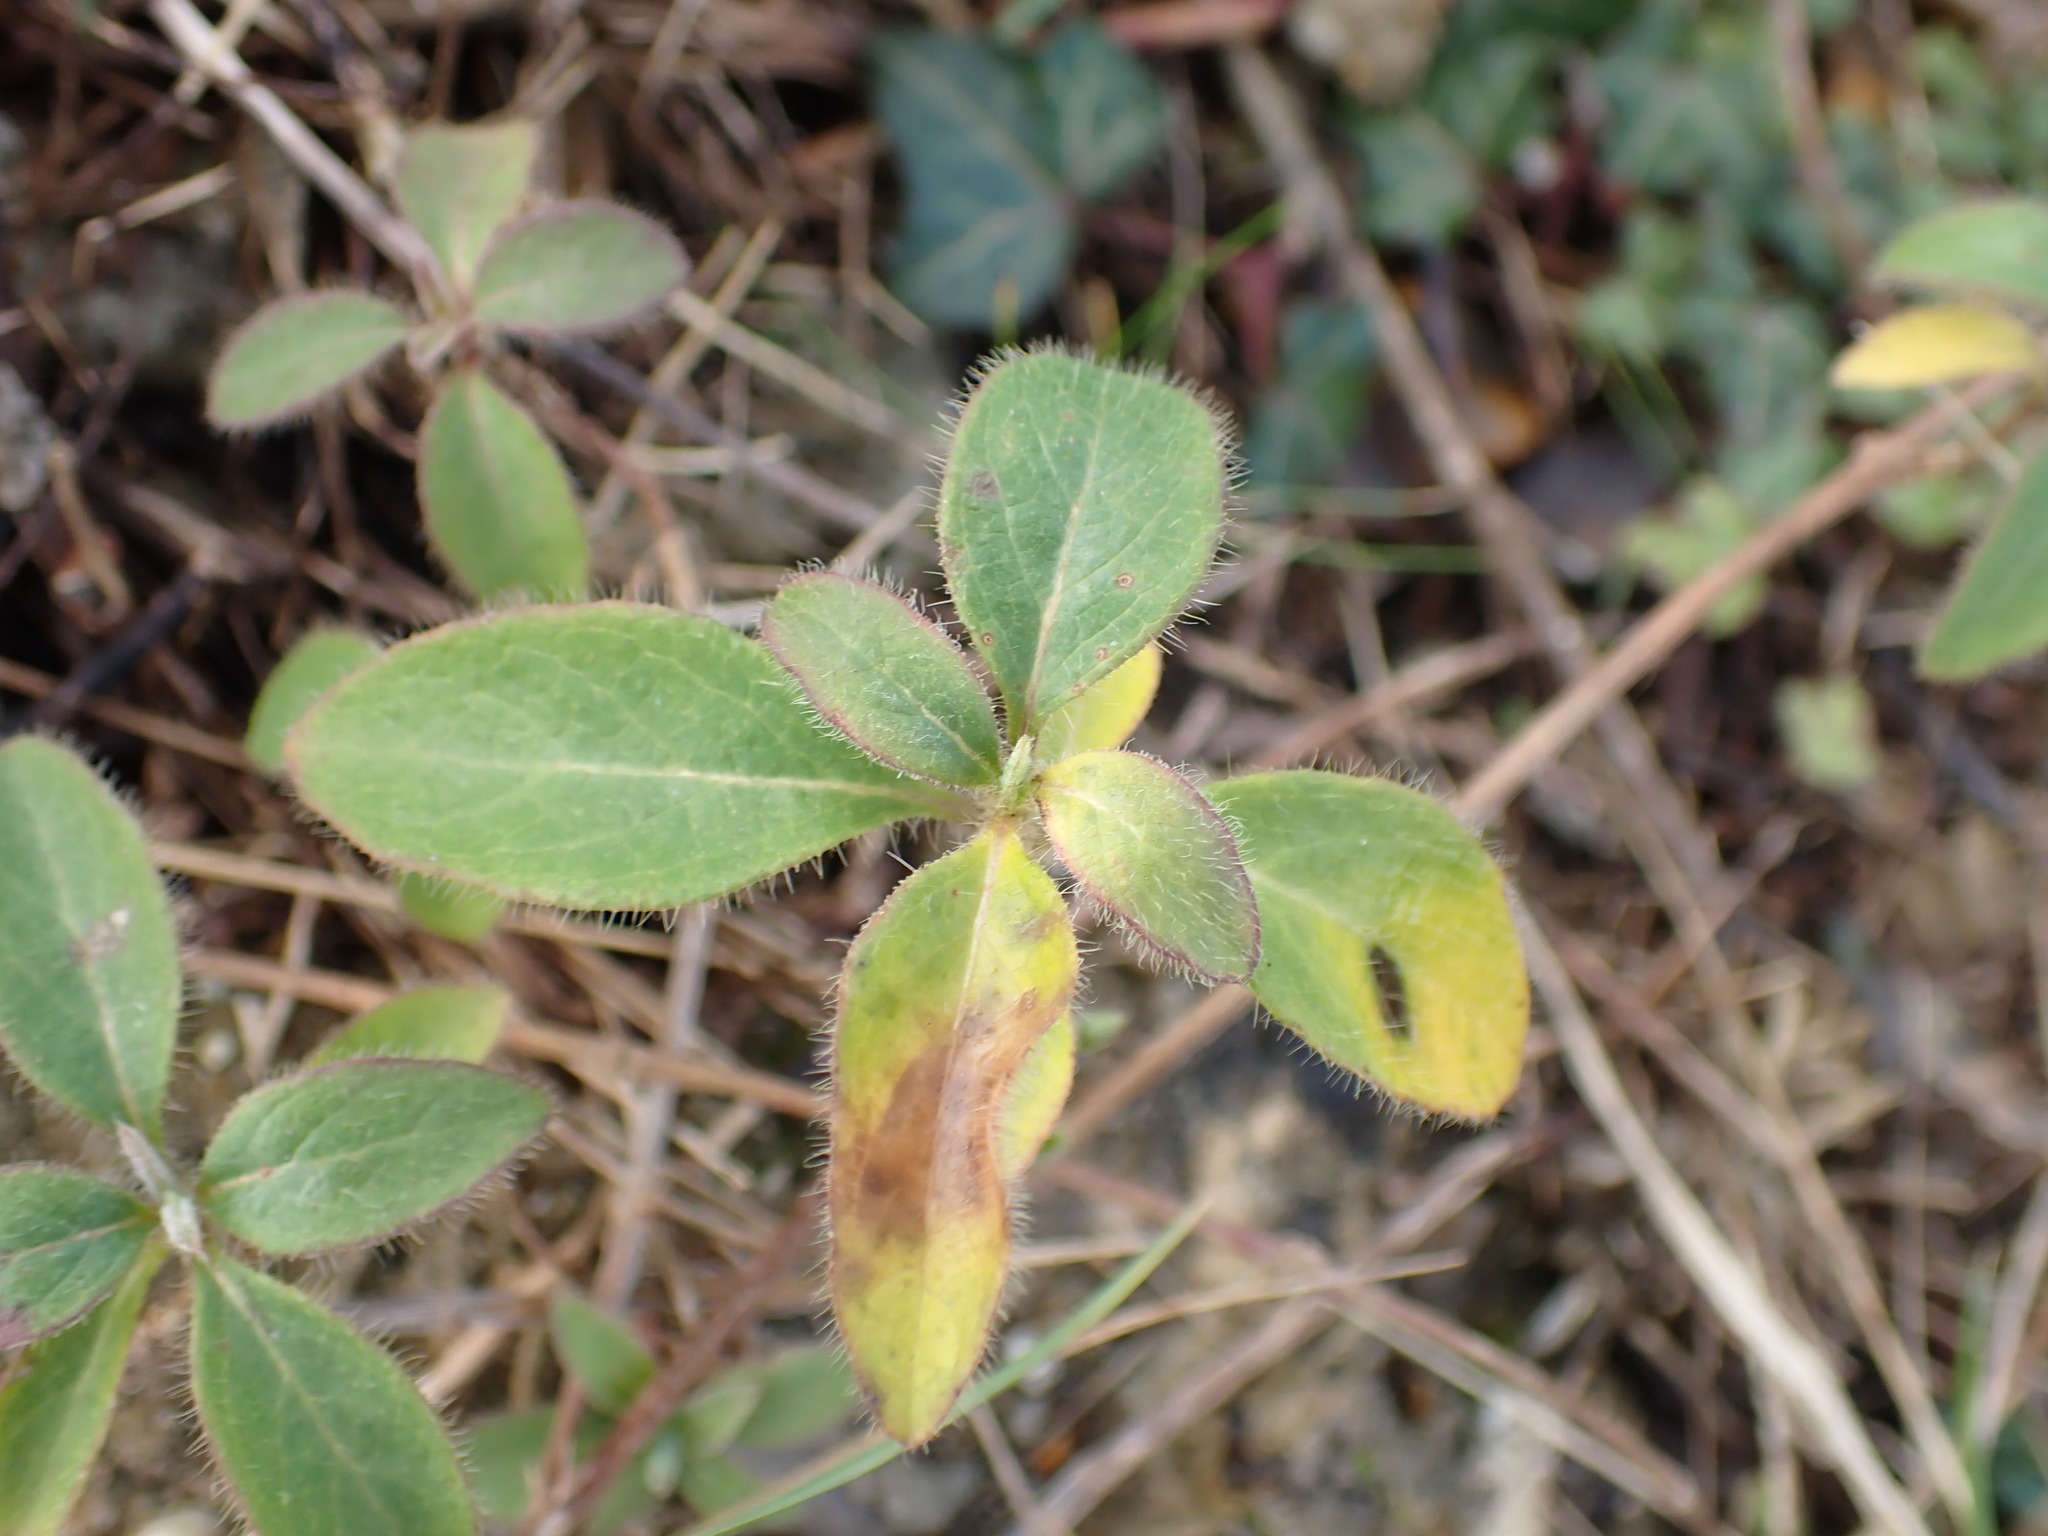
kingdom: Plantae
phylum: Tracheophyta
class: Magnoliopsida
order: Dipsacales
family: Caprifoliaceae
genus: Lonicera
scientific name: Lonicera periclymenum
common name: European honeysuckle
